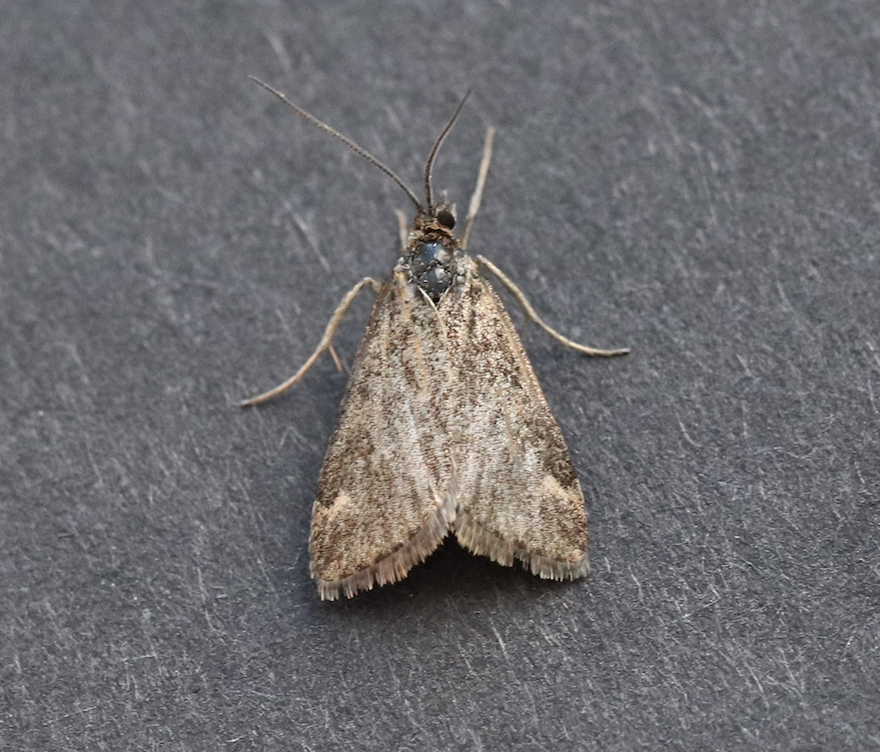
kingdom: Animalia
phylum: Arthropoda
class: Insecta
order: Lepidoptera
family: Crambidae
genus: Pyrausta
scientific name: Pyrausta despicata
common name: Straw-barred pearl
